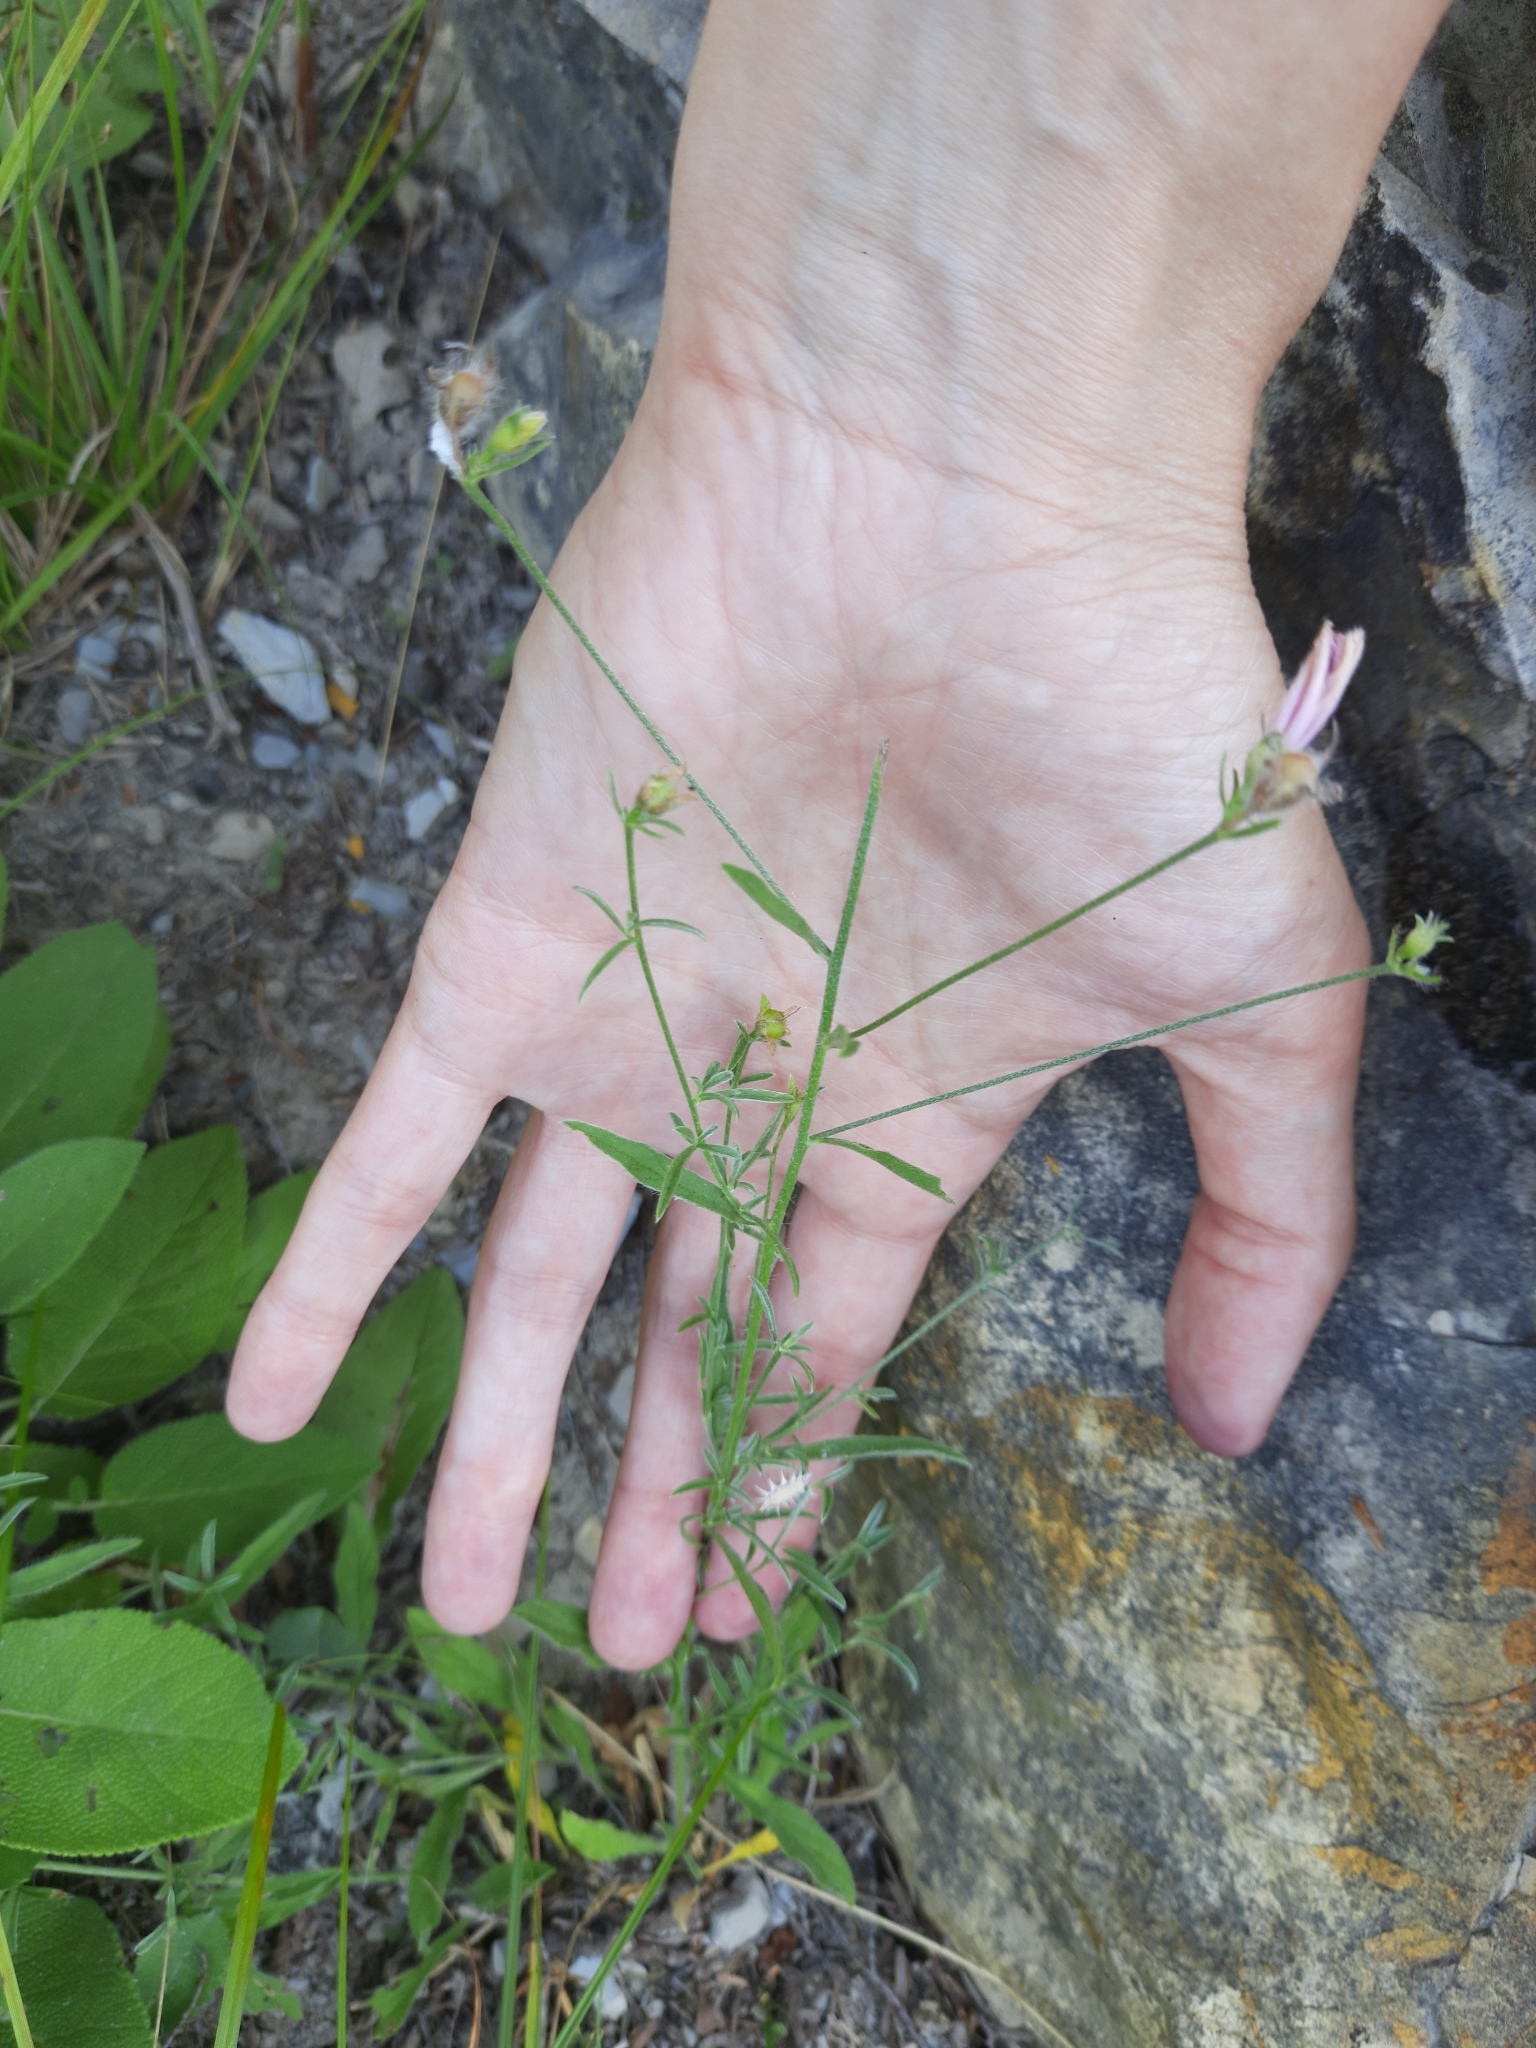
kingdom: Plantae
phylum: Tracheophyta
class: Magnoliopsida
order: Solanales
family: Convolvulaceae
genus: Convolvulus
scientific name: Convolvulus cantabrica
